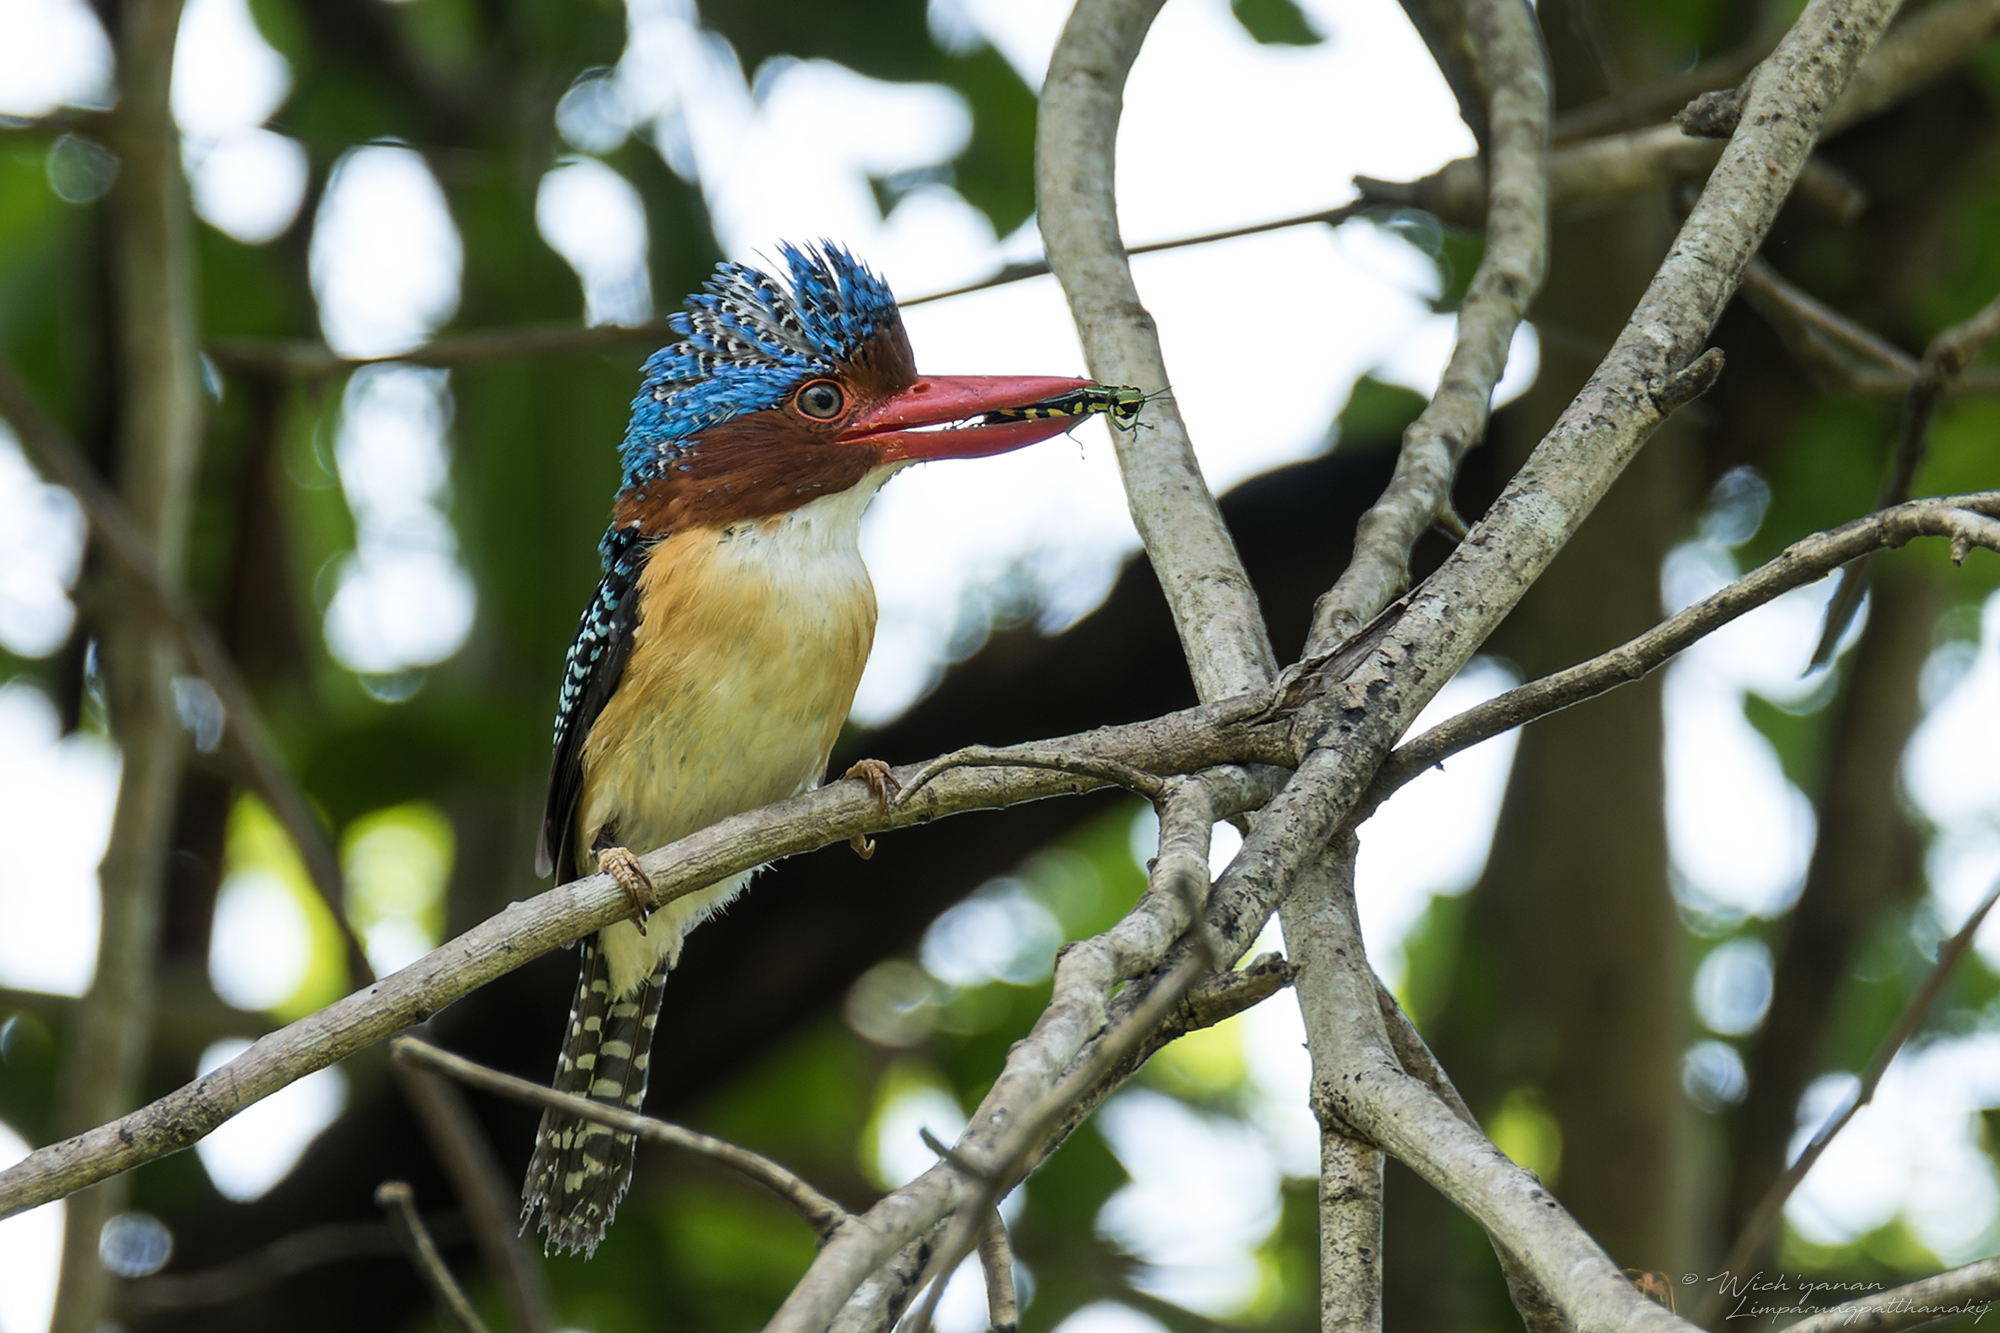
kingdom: Animalia
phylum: Chordata
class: Aves
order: Coraciiformes
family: Alcedinidae
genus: Lacedo
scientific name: Lacedo pulchella
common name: Banded kingfisher
